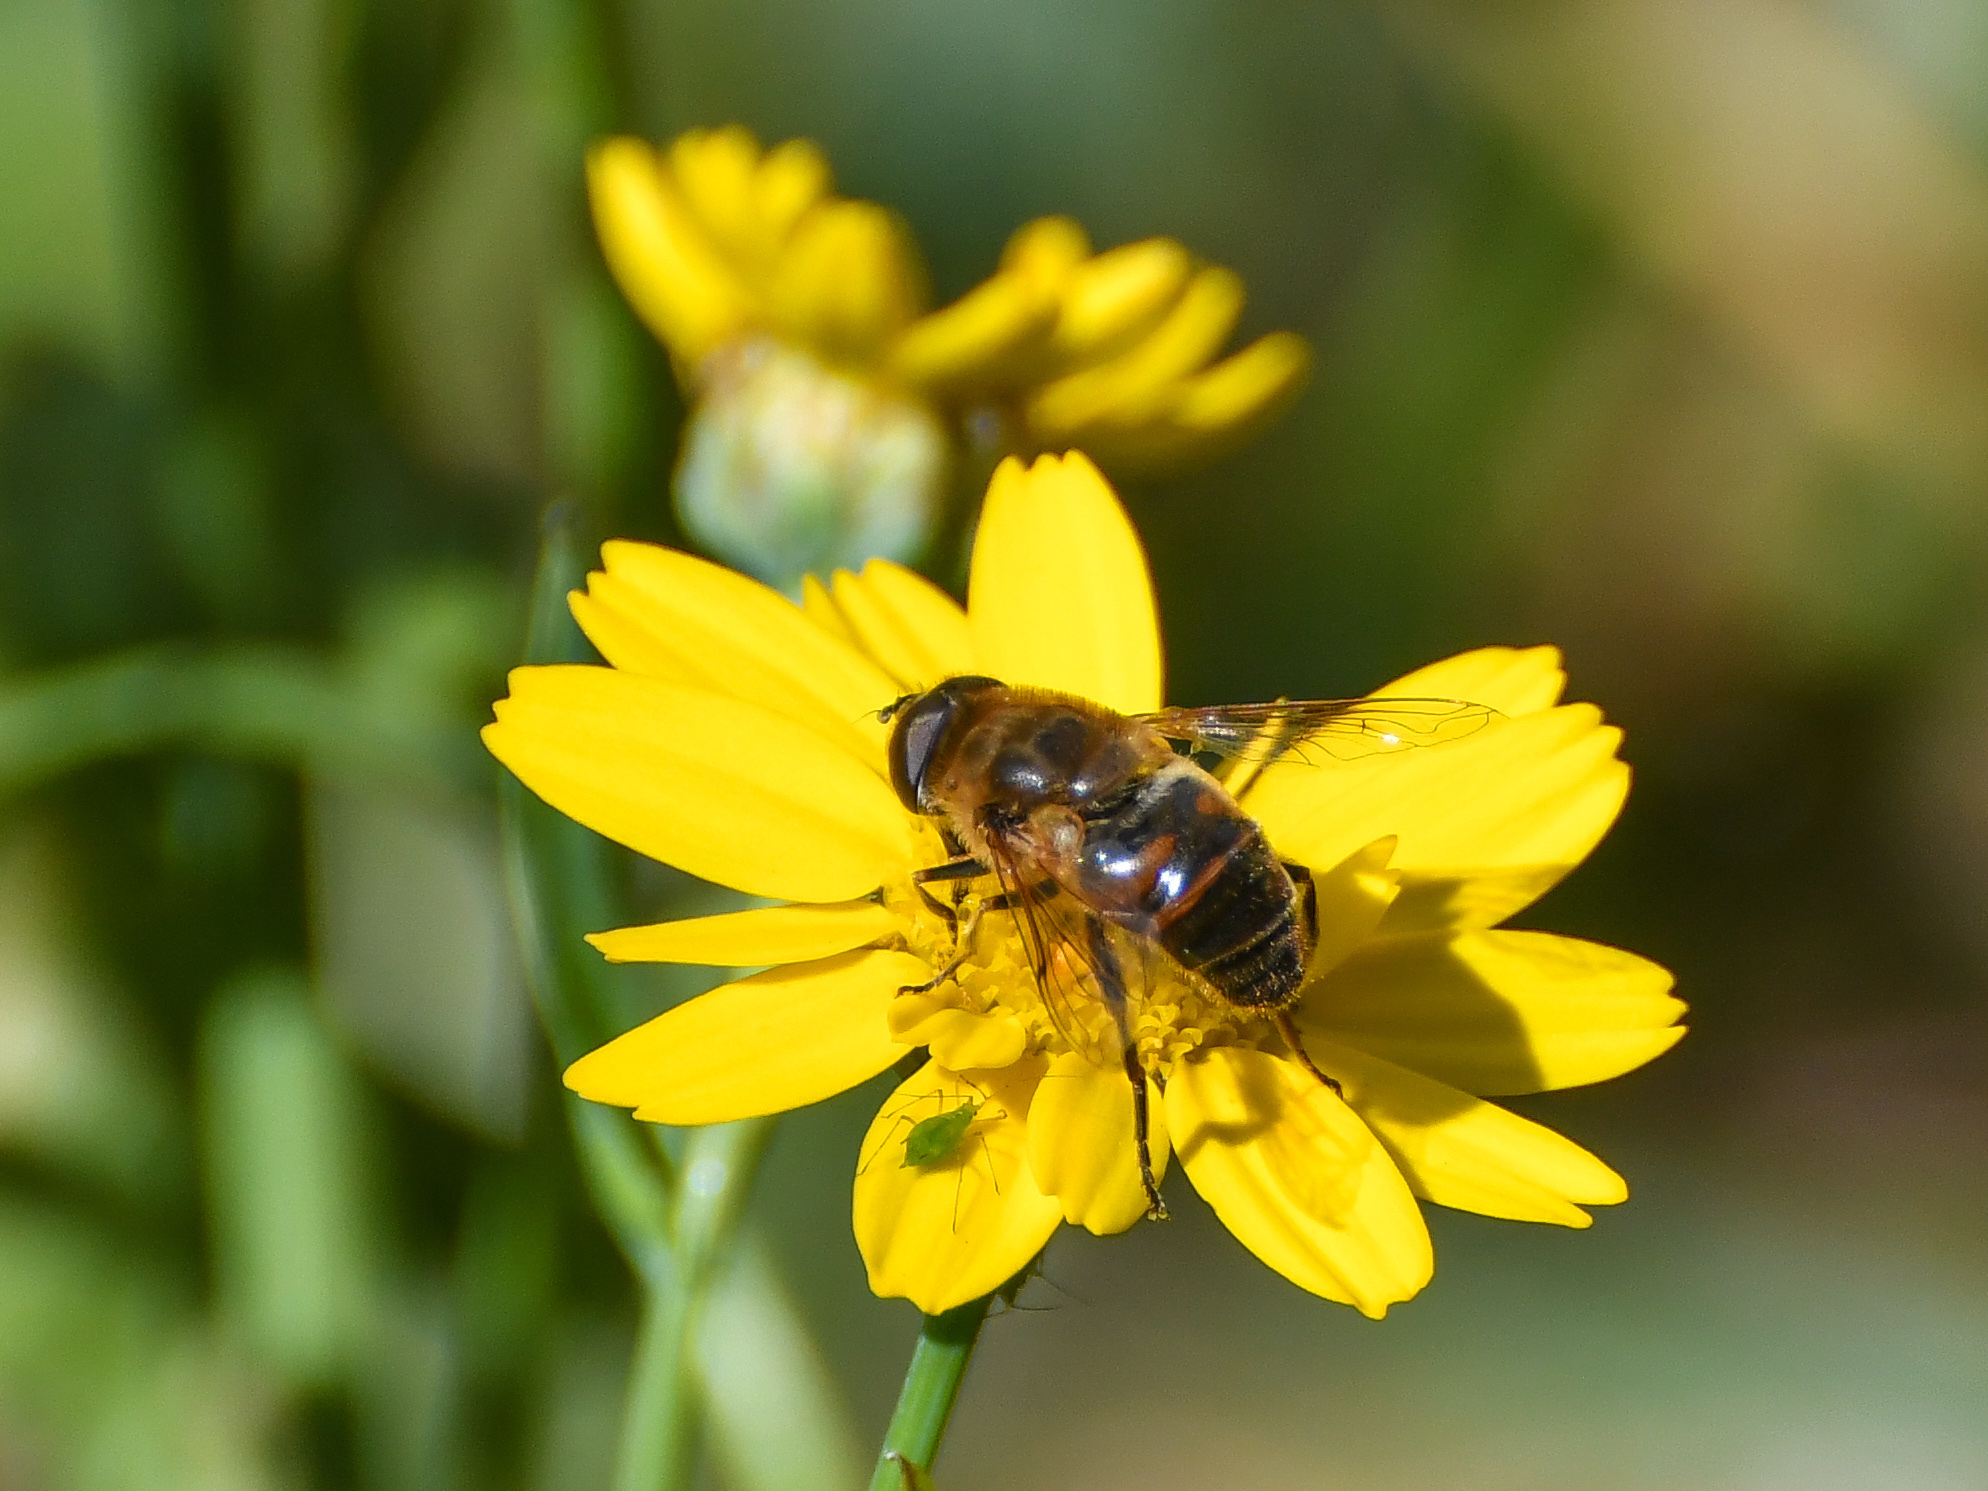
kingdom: Animalia
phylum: Arthropoda
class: Insecta
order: Diptera
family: Syrphidae
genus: Eristalis
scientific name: Eristalis tenax
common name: Drone fly
